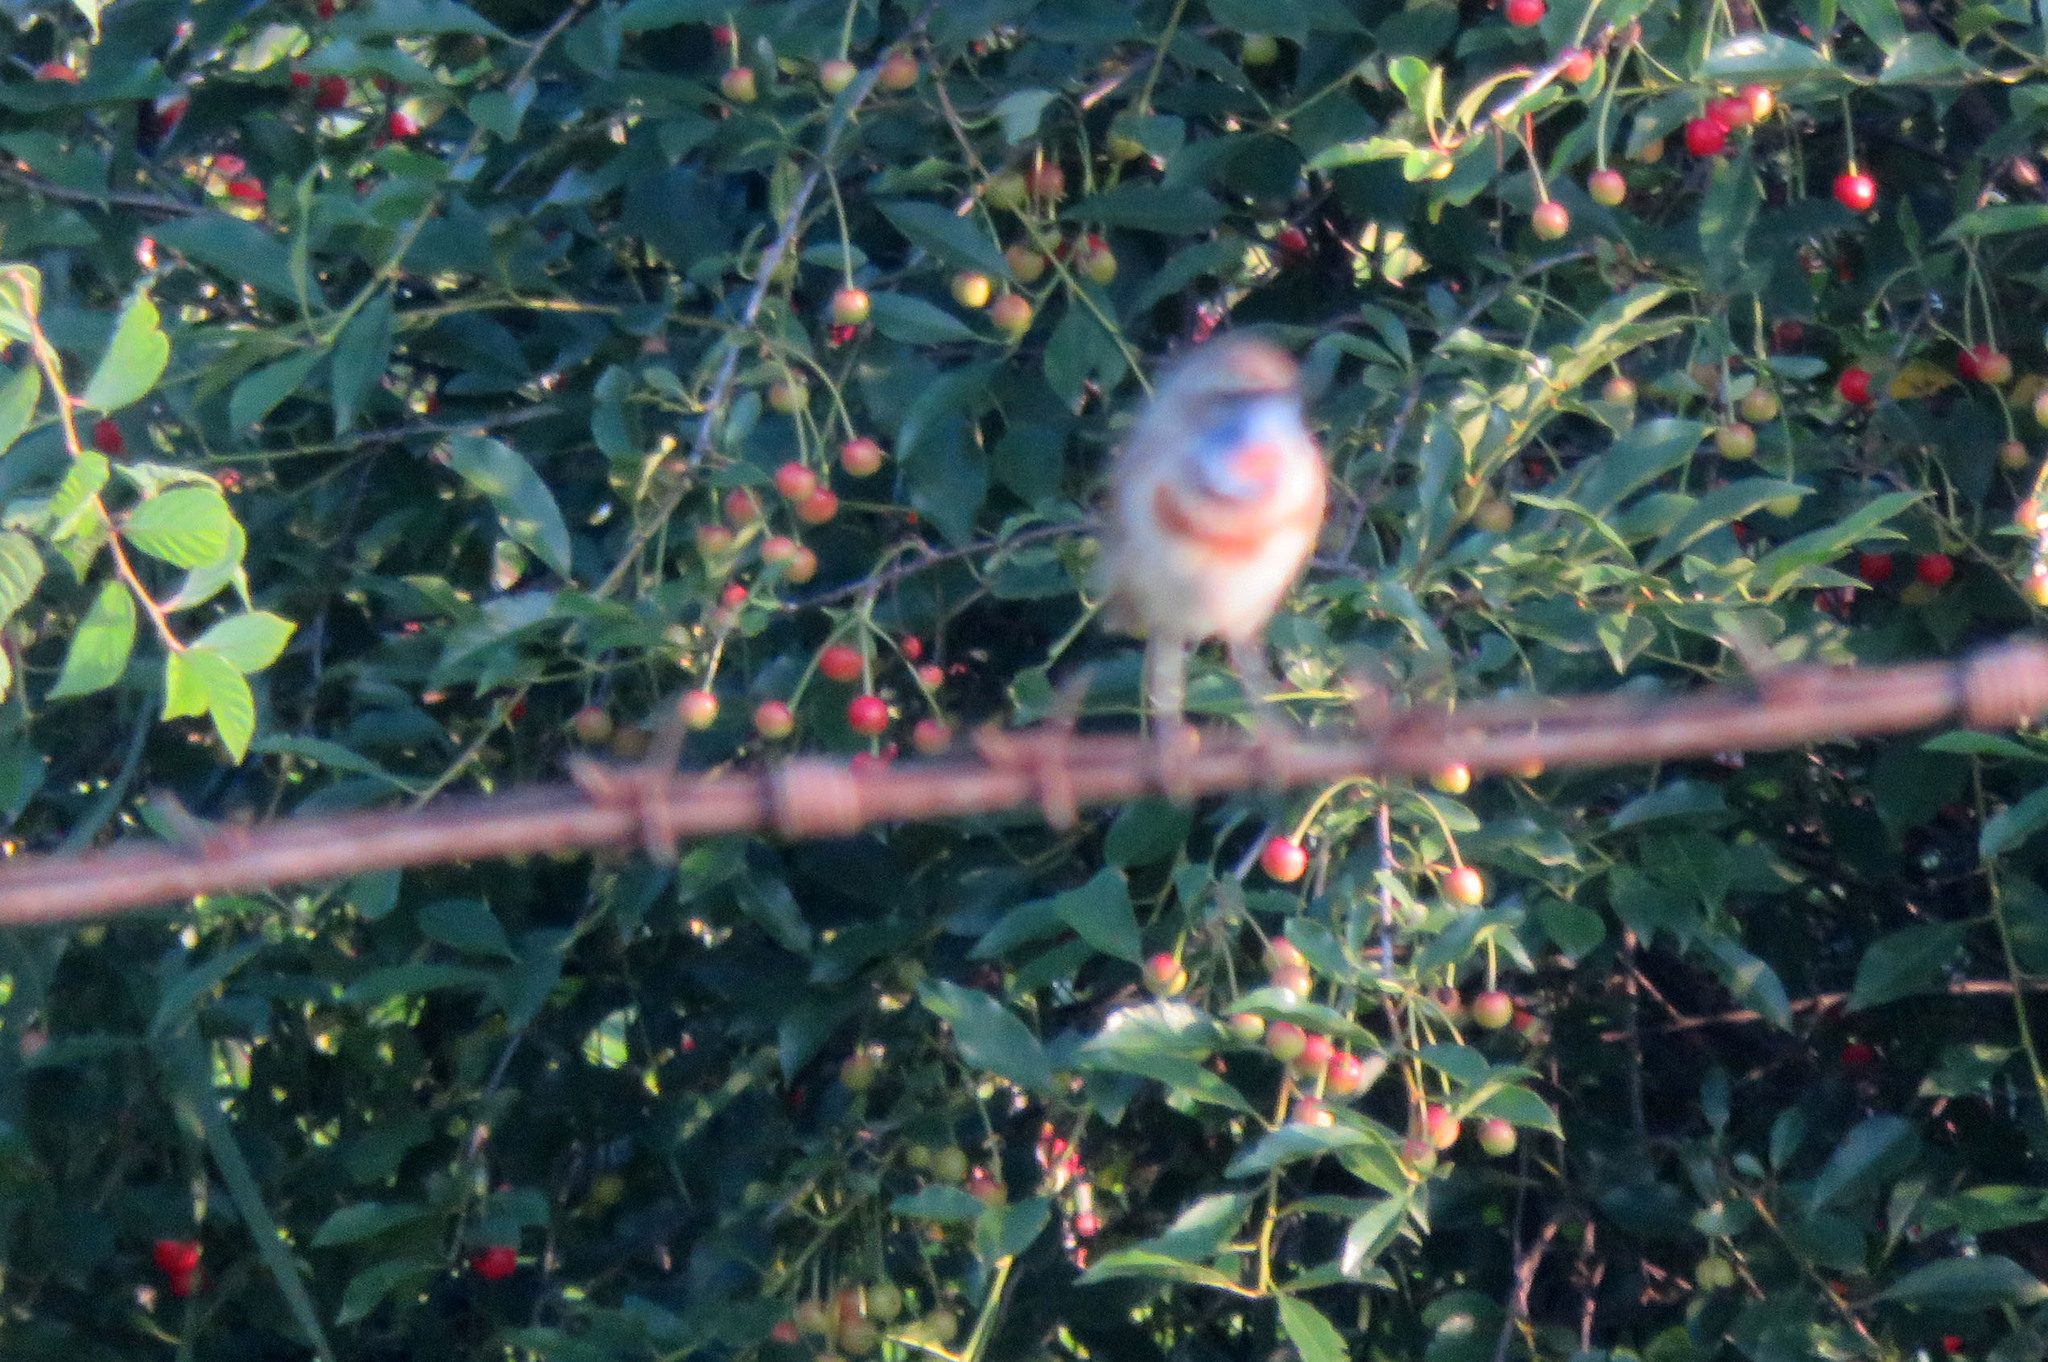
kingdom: Animalia
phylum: Chordata
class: Aves
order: Passeriformes
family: Muscicapidae
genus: Luscinia
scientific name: Luscinia svecica
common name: Bluethroat
